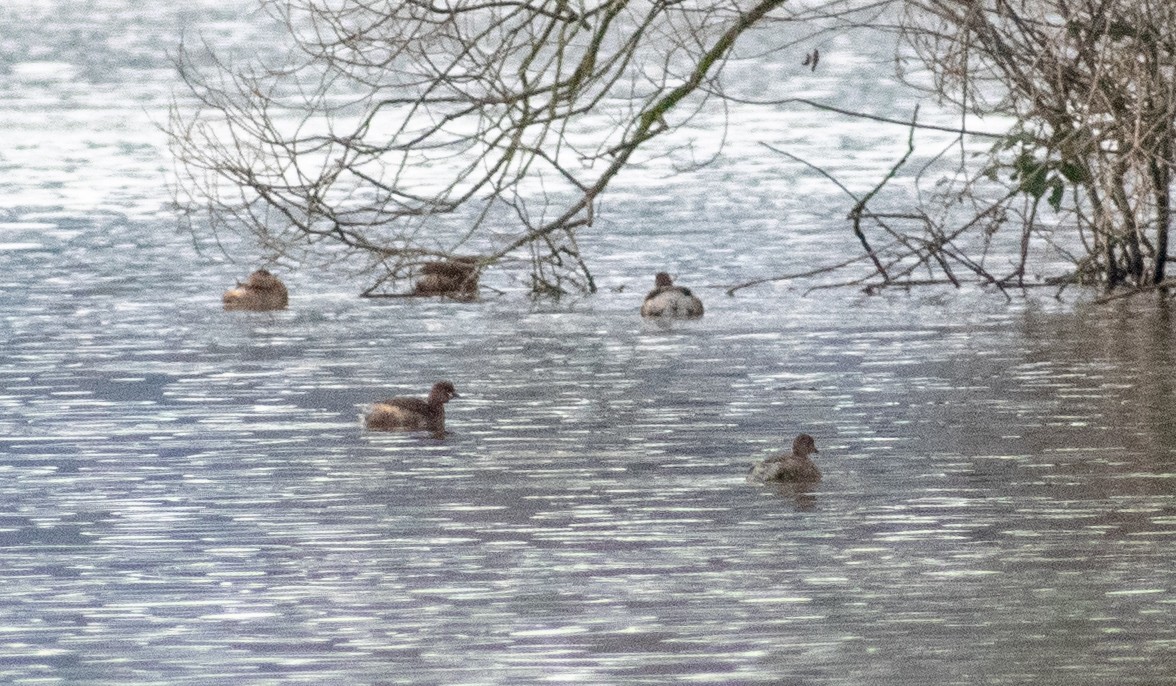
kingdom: Animalia
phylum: Chordata
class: Aves
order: Podicipediformes
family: Podicipedidae
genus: Tachybaptus
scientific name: Tachybaptus ruficollis
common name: Little grebe
